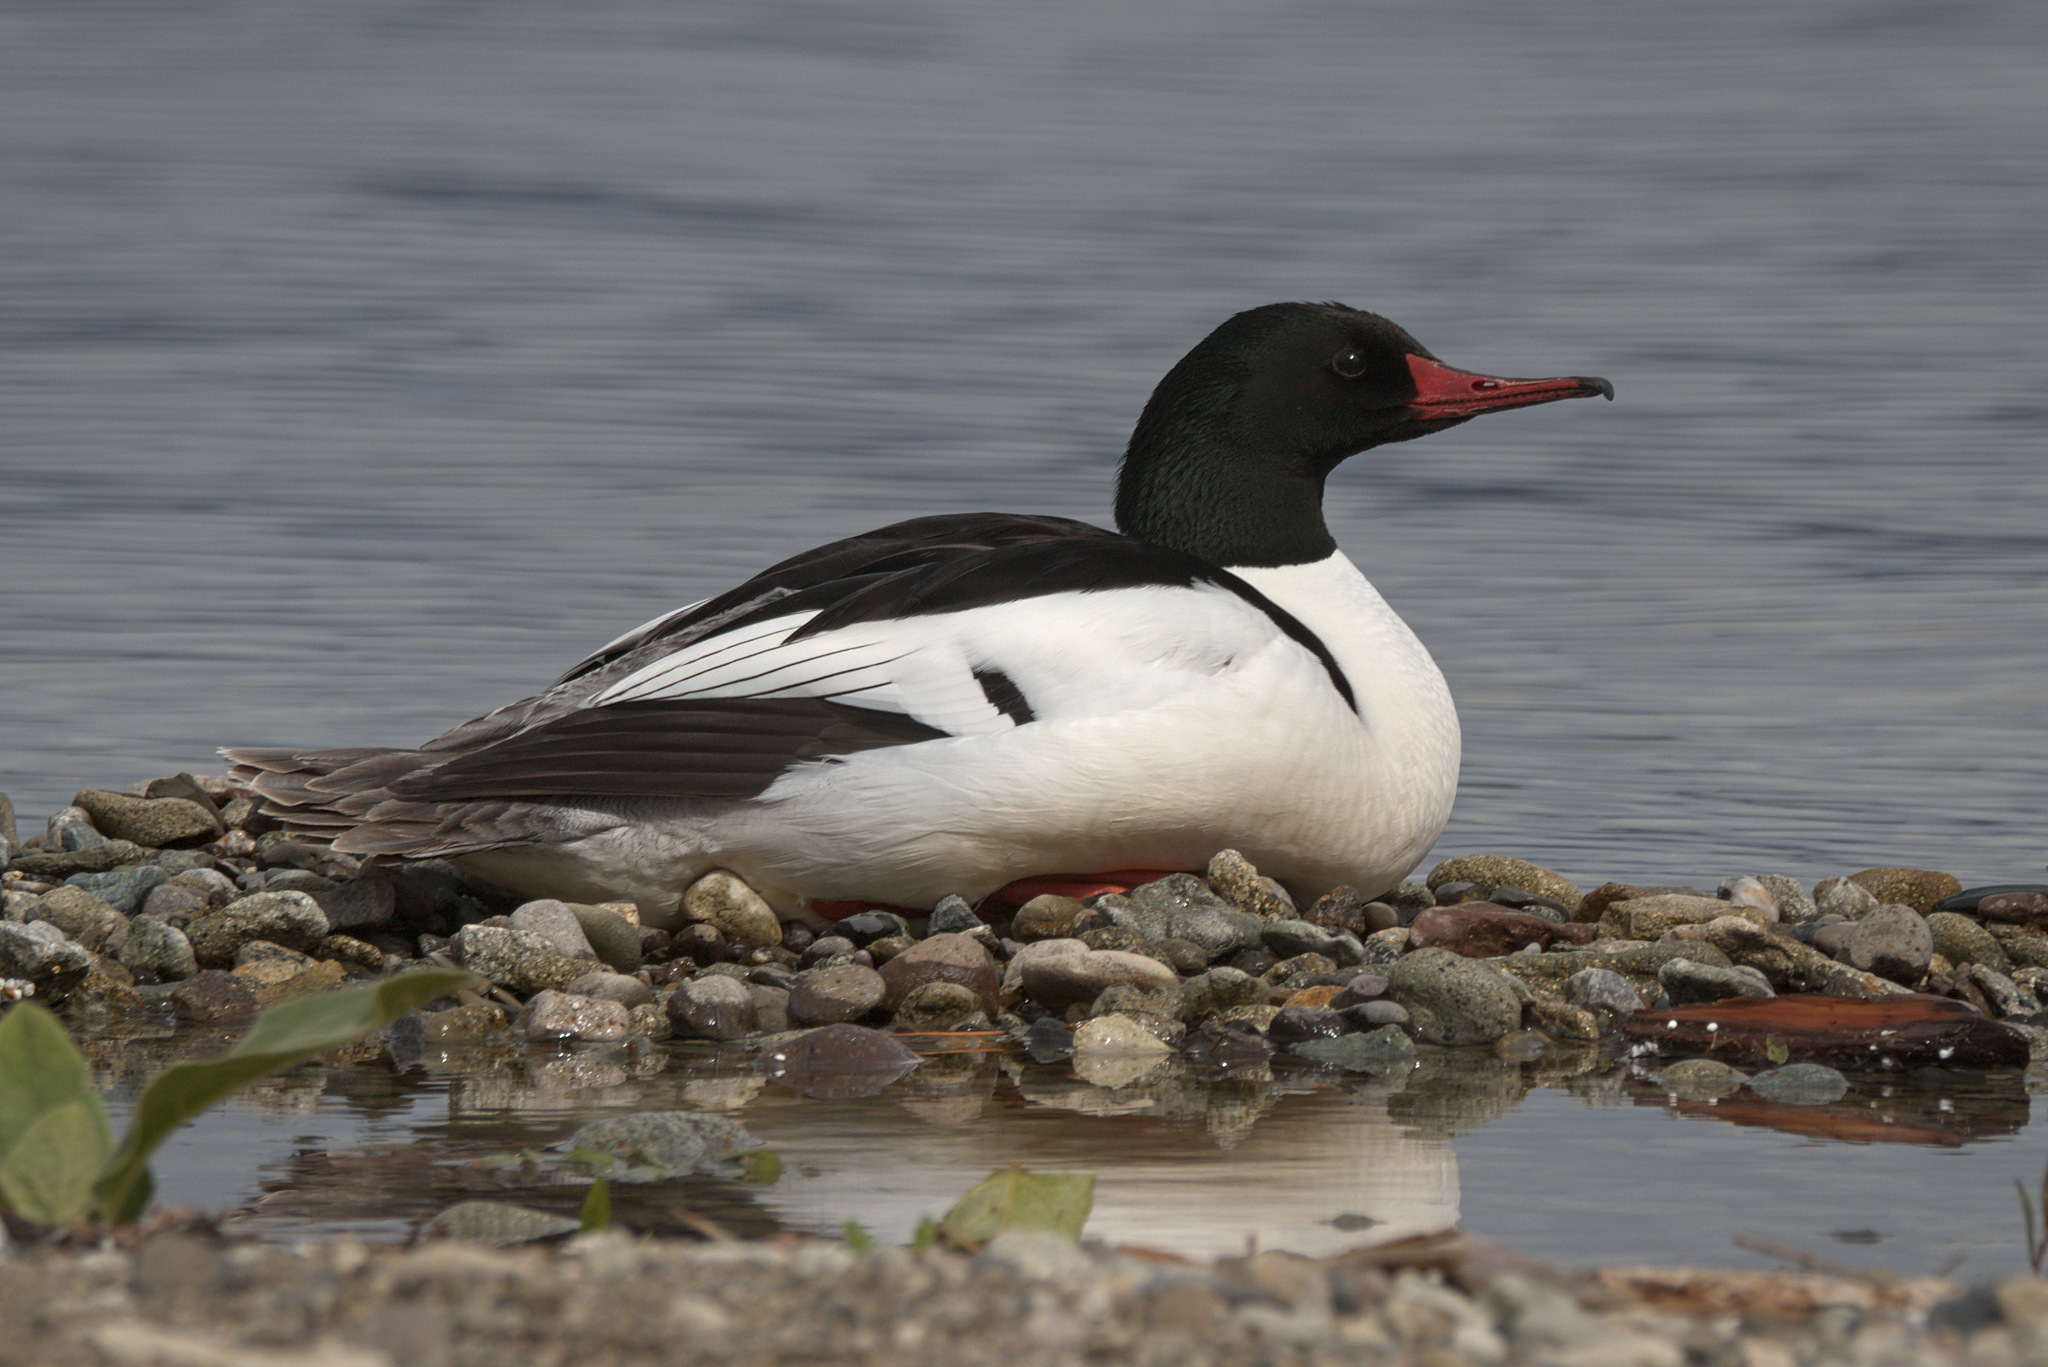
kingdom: Animalia
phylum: Chordata
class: Aves
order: Anseriformes
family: Anatidae
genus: Mergus
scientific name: Mergus merganser
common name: Common merganser
